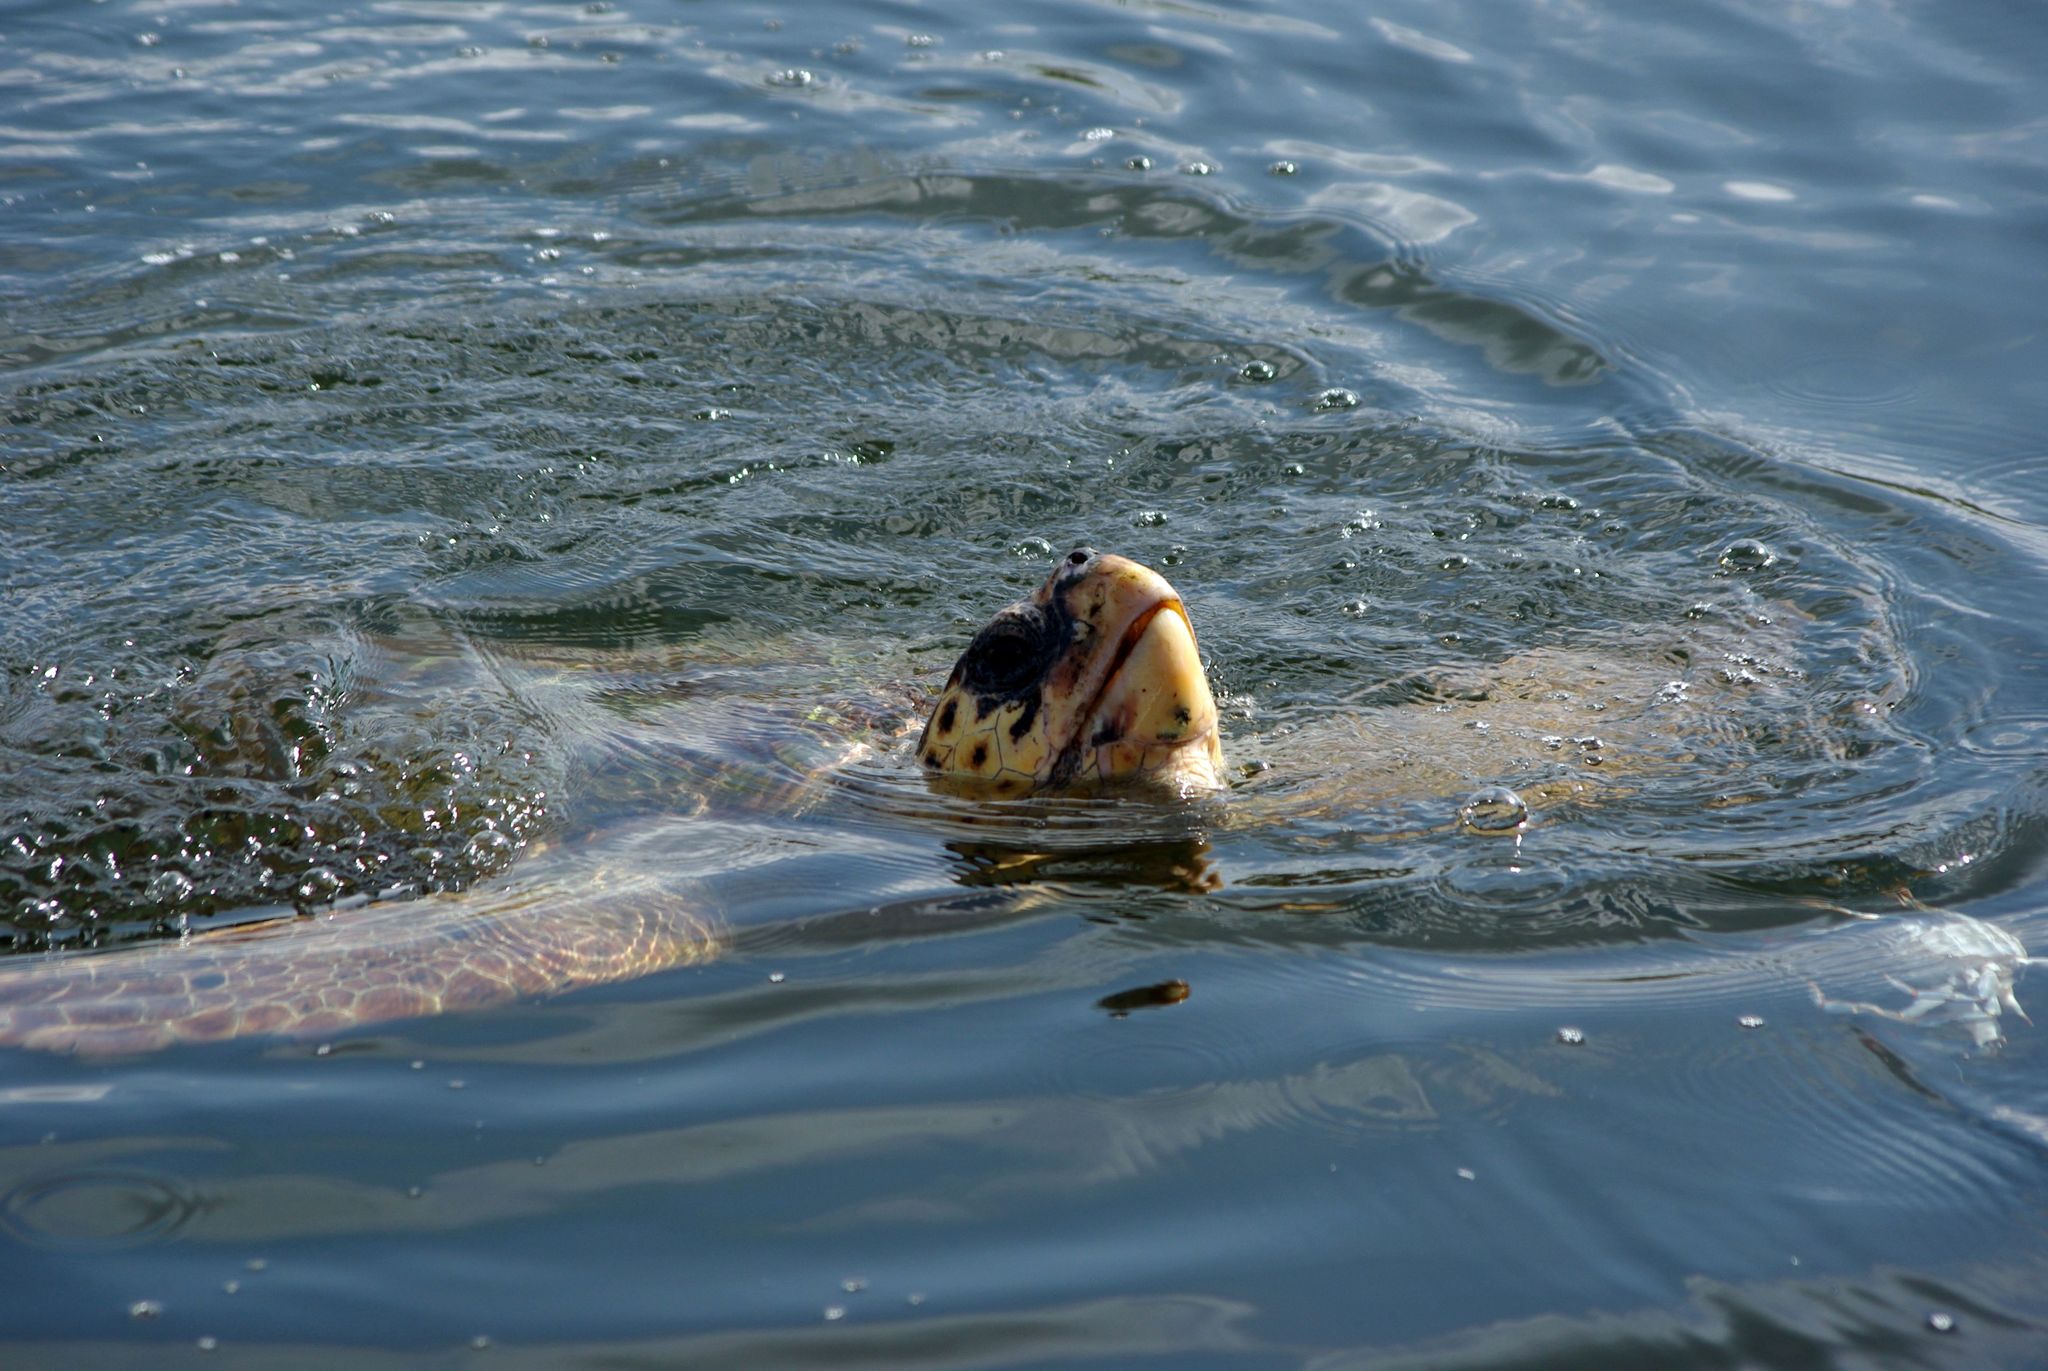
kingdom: Animalia
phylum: Chordata
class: Testudines
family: Cheloniidae
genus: Caretta
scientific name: Caretta caretta
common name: Loggerhead sea turtle
